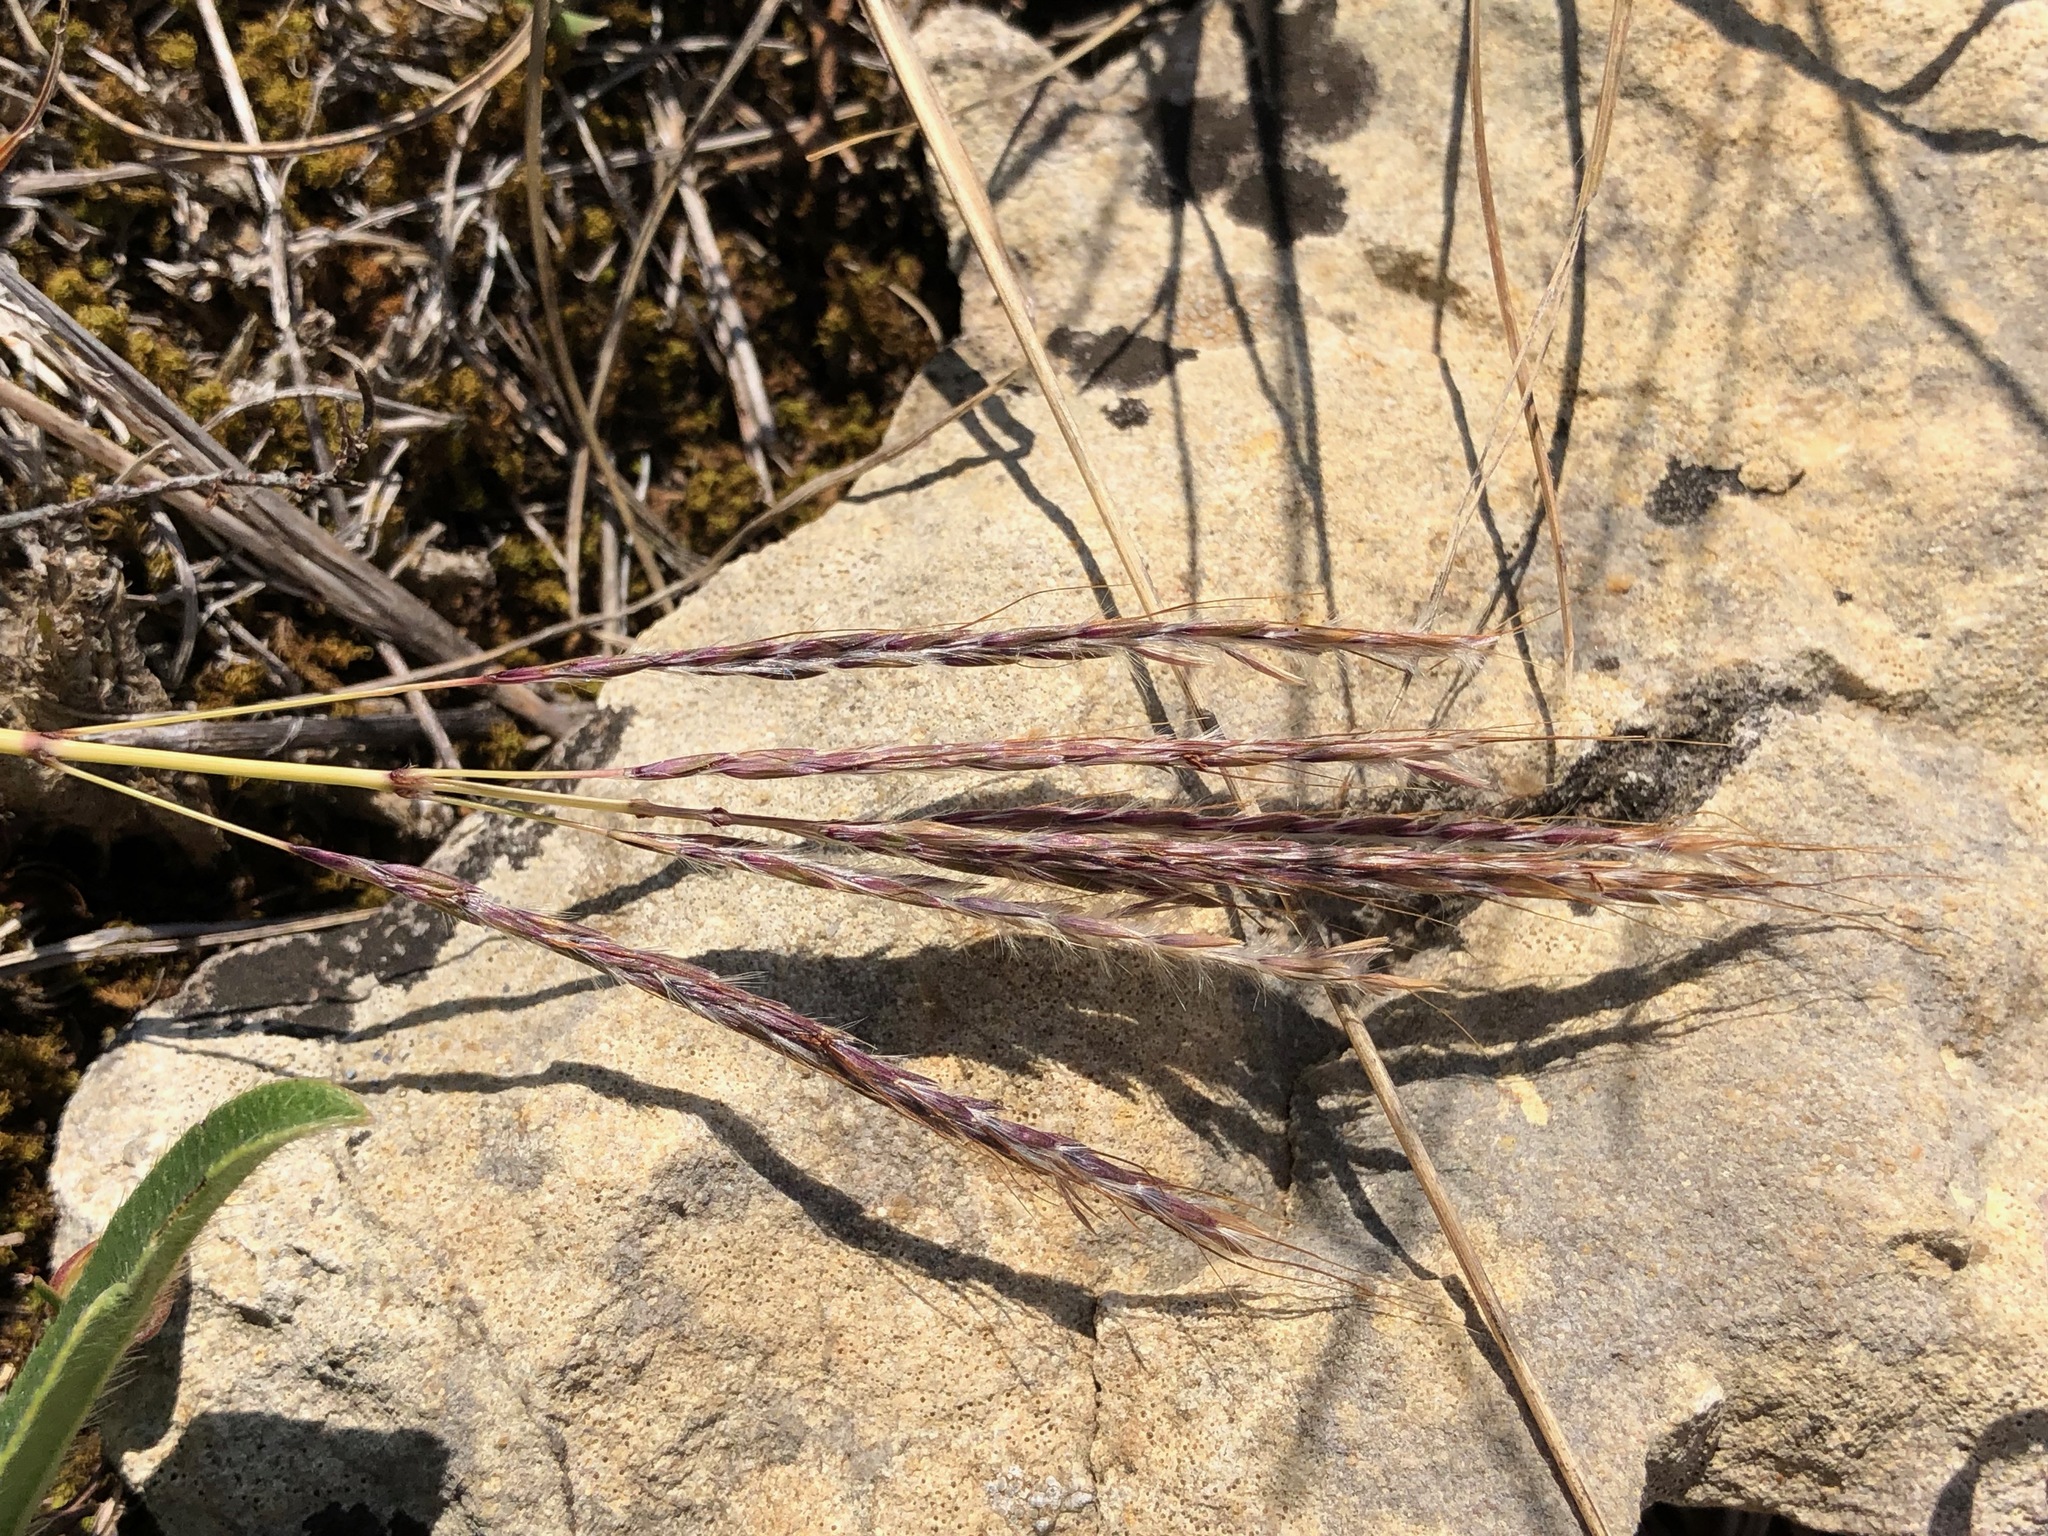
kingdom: Plantae
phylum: Tracheophyta
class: Liliopsida
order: Poales
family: Poaceae
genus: Bothriochloa
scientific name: Bothriochloa ischaemum
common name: Yellow bluestem
